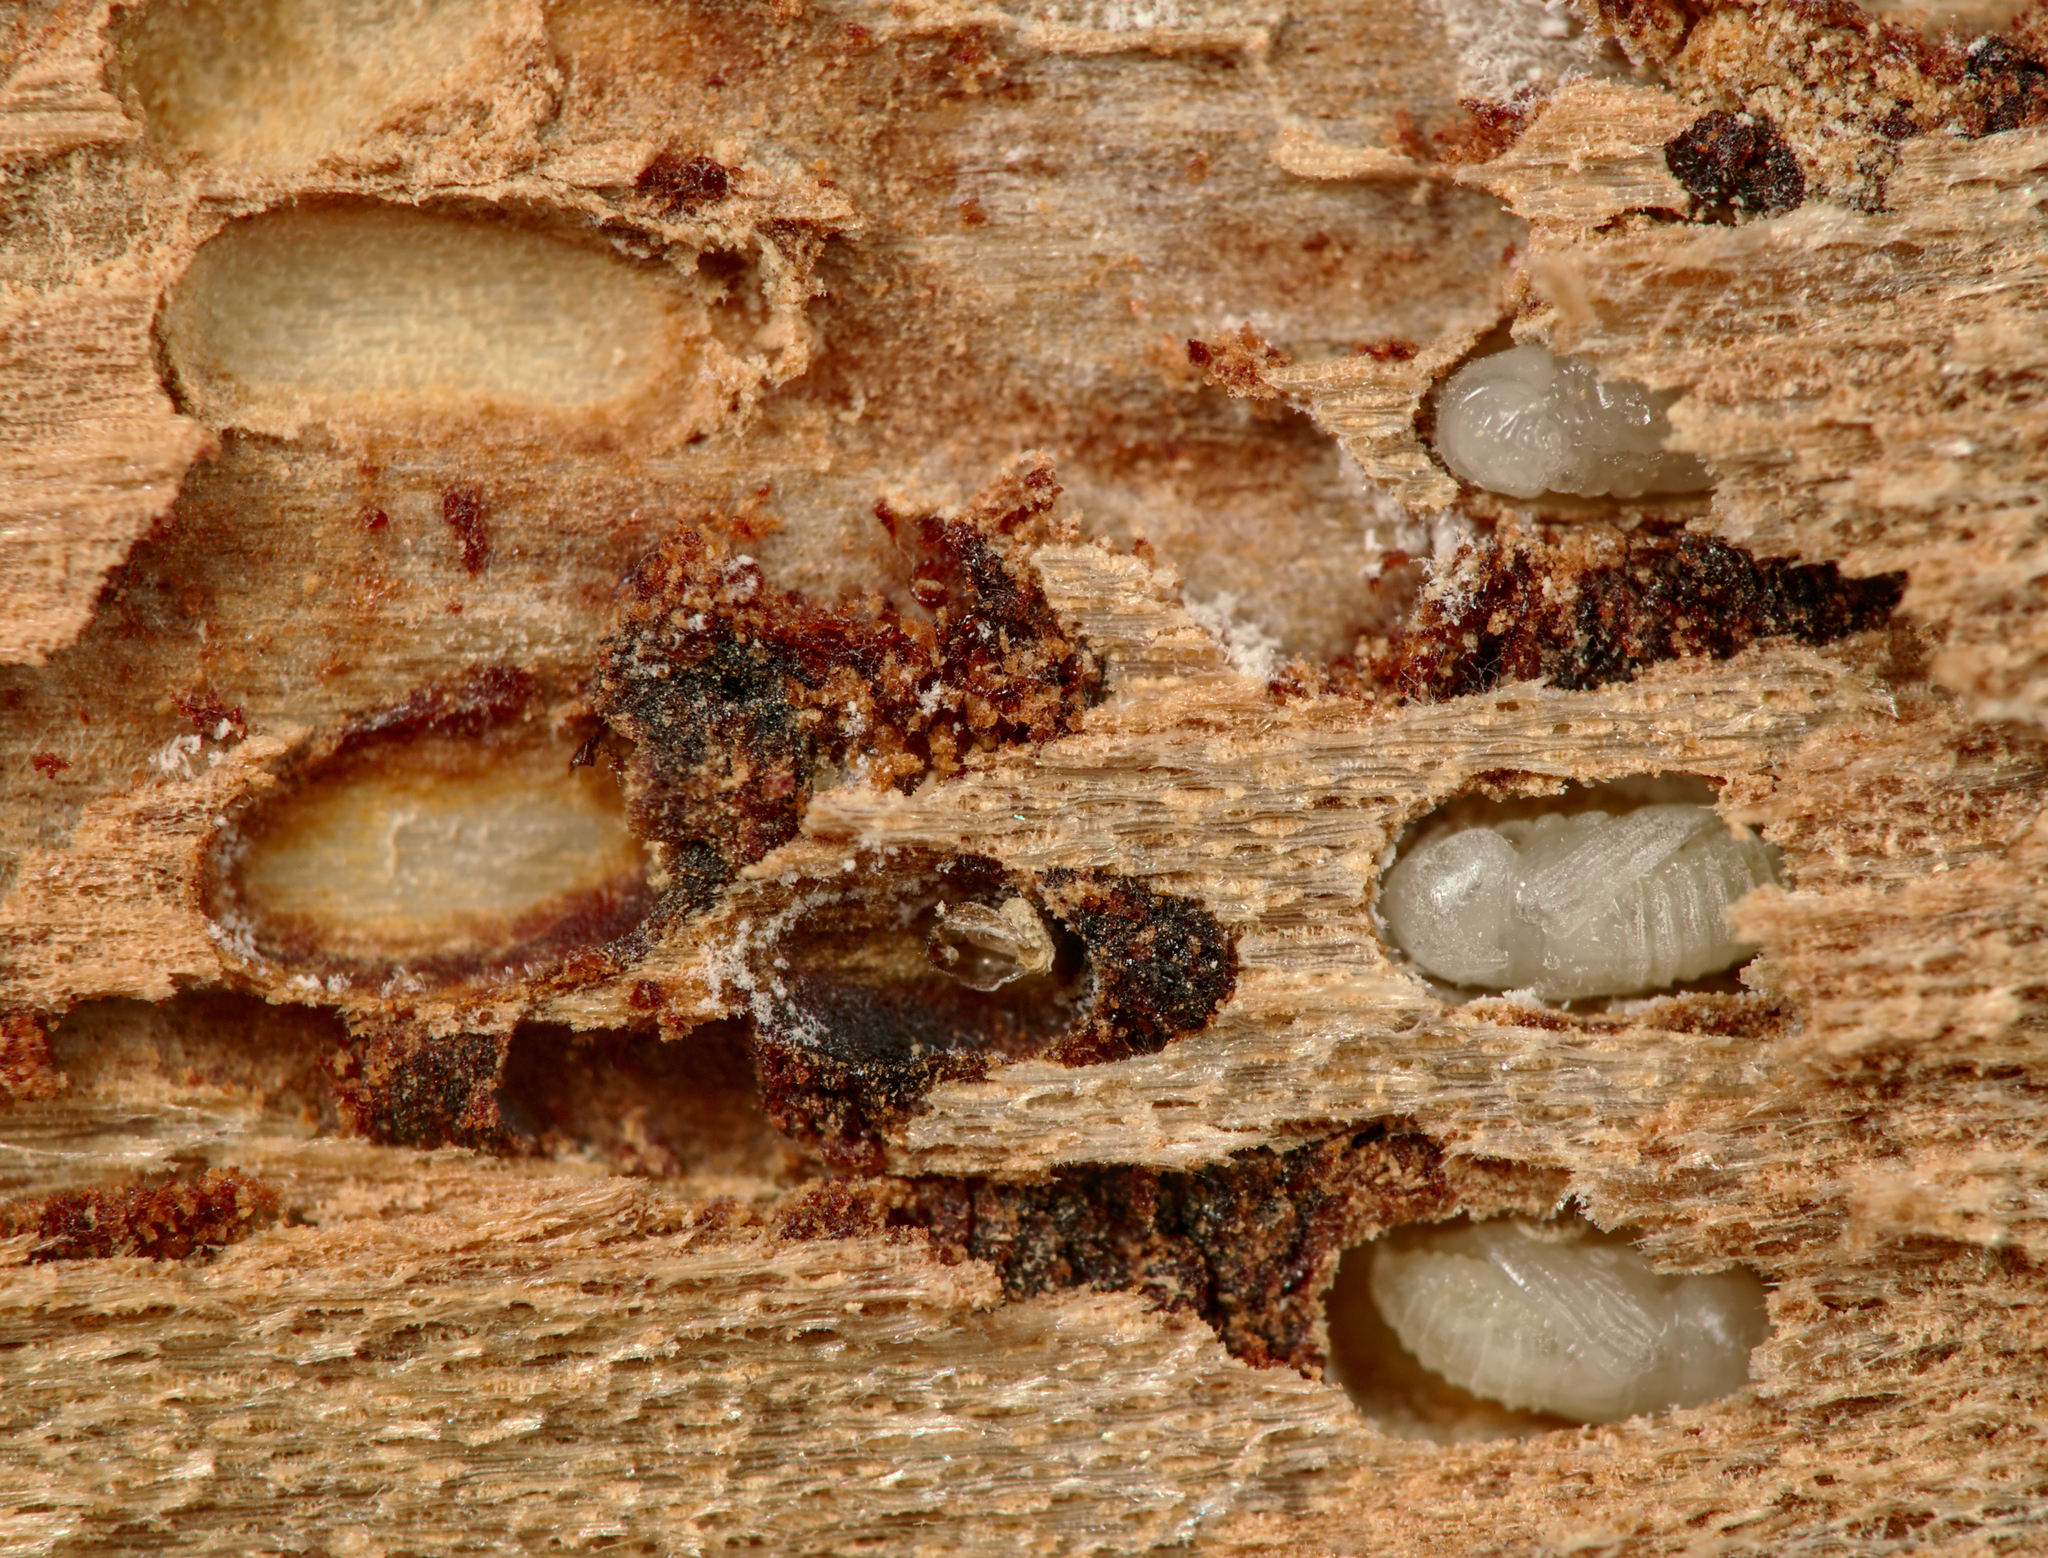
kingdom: Animalia
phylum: Arthropoda
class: Insecta
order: Coleoptera
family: Curculionidae
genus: Cryphalus
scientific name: Cryphalus abietis
